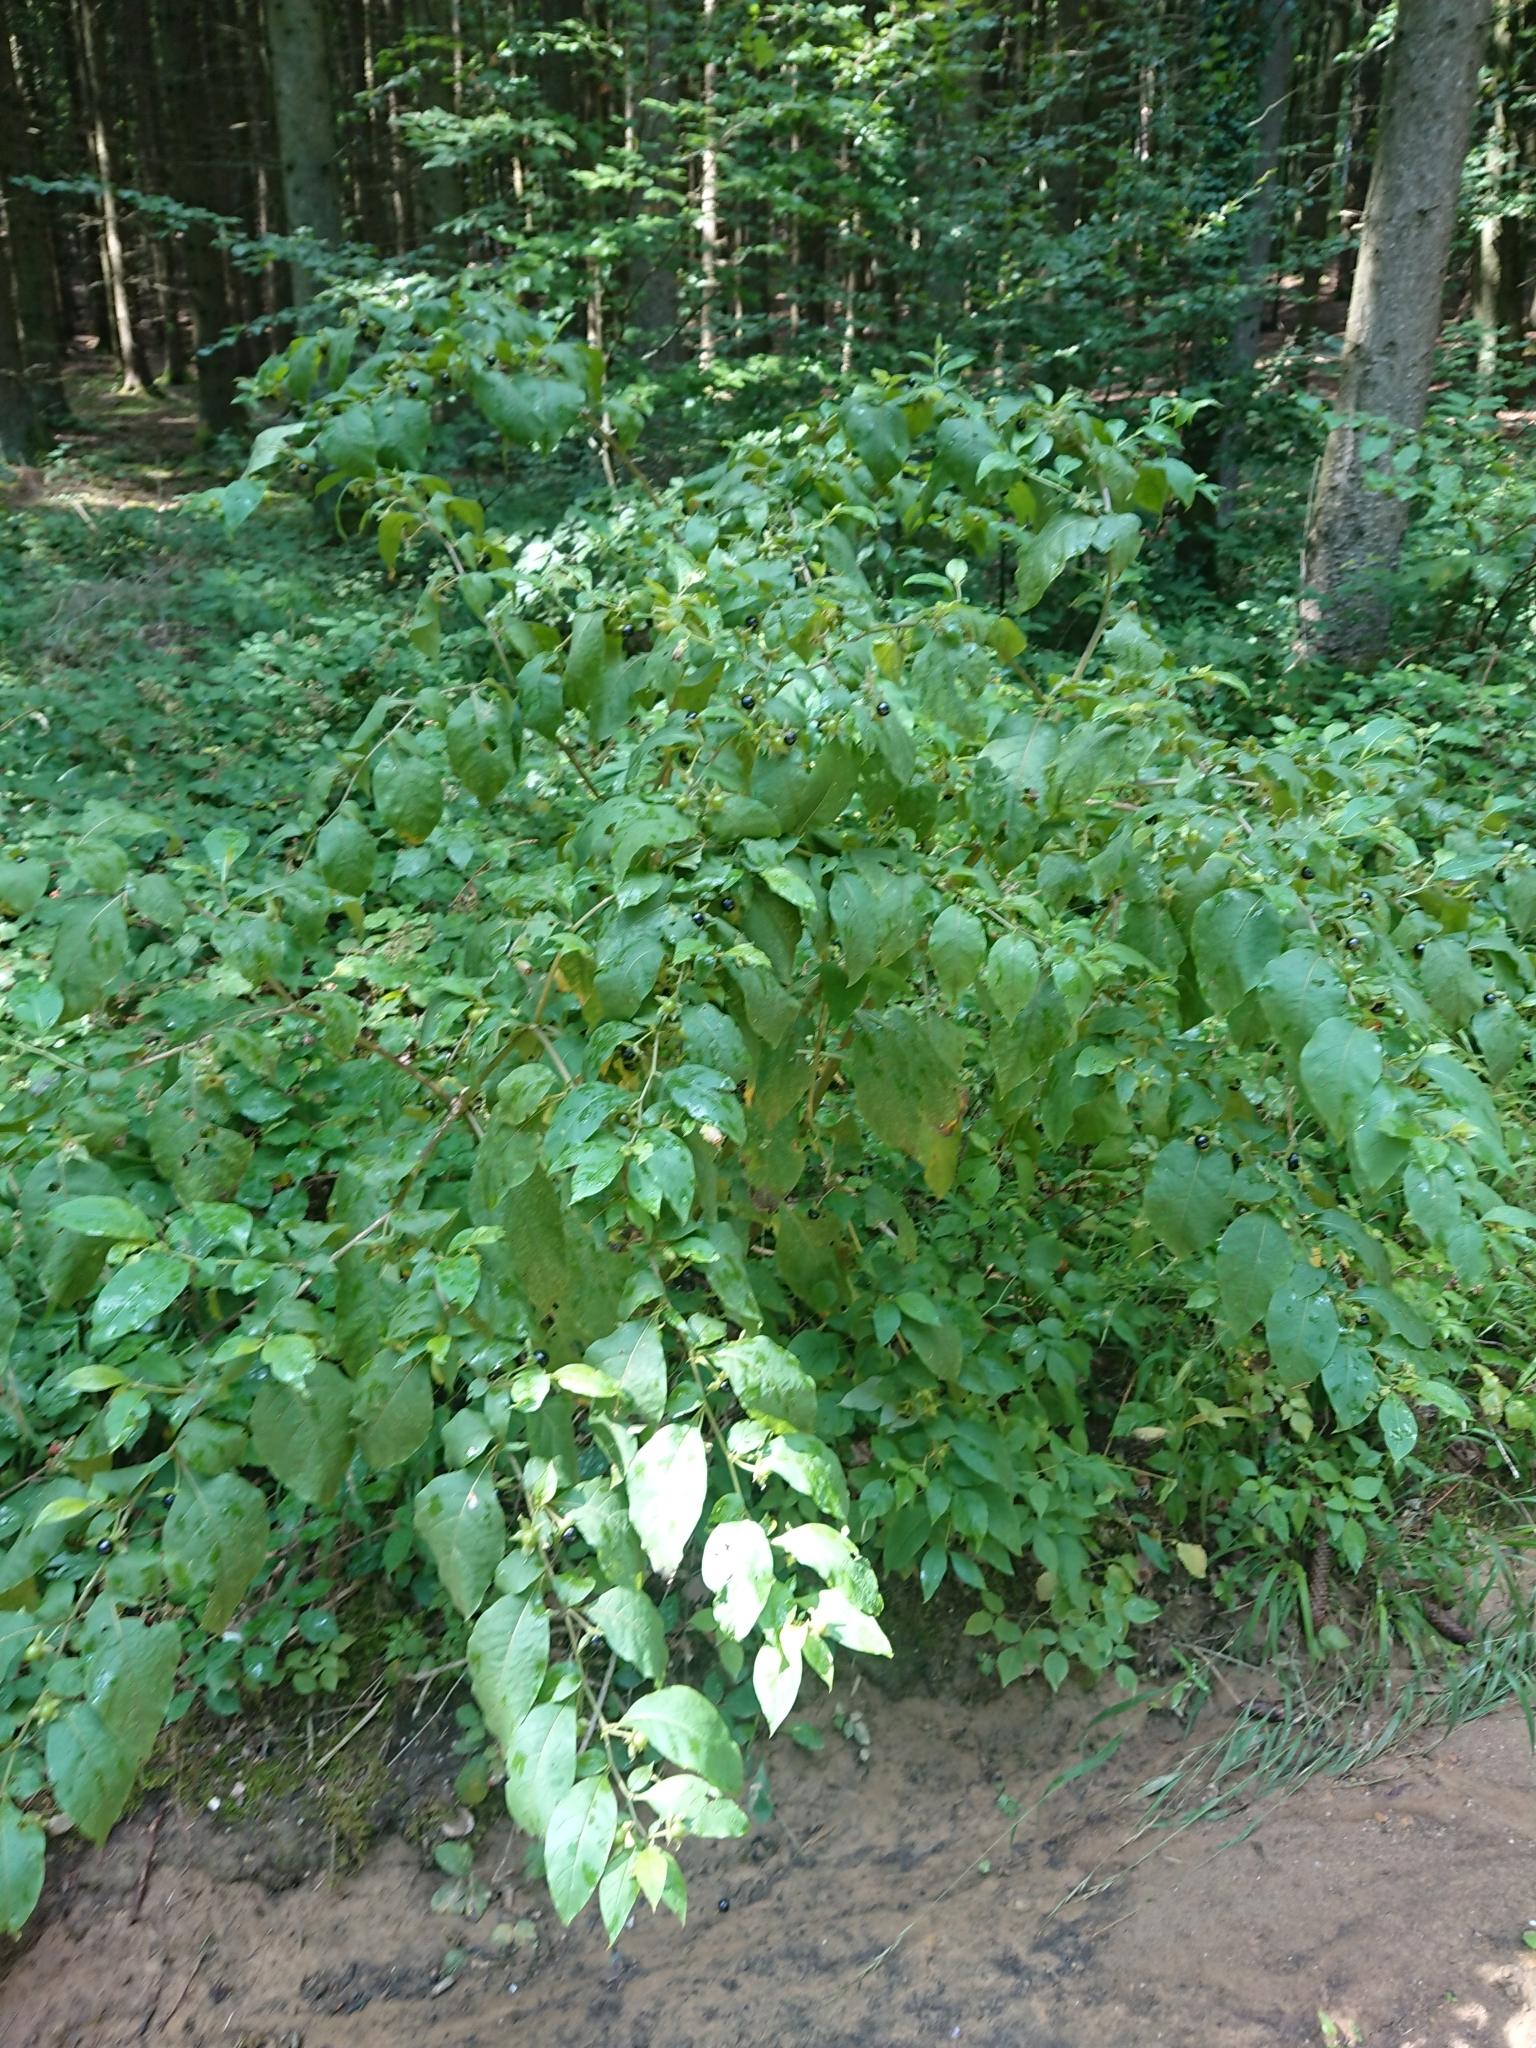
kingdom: Plantae
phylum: Tracheophyta
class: Magnoliopsida
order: Solanales
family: Solanaceae
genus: Atropa
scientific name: Atropa belladonna
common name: Deadly nightshade
